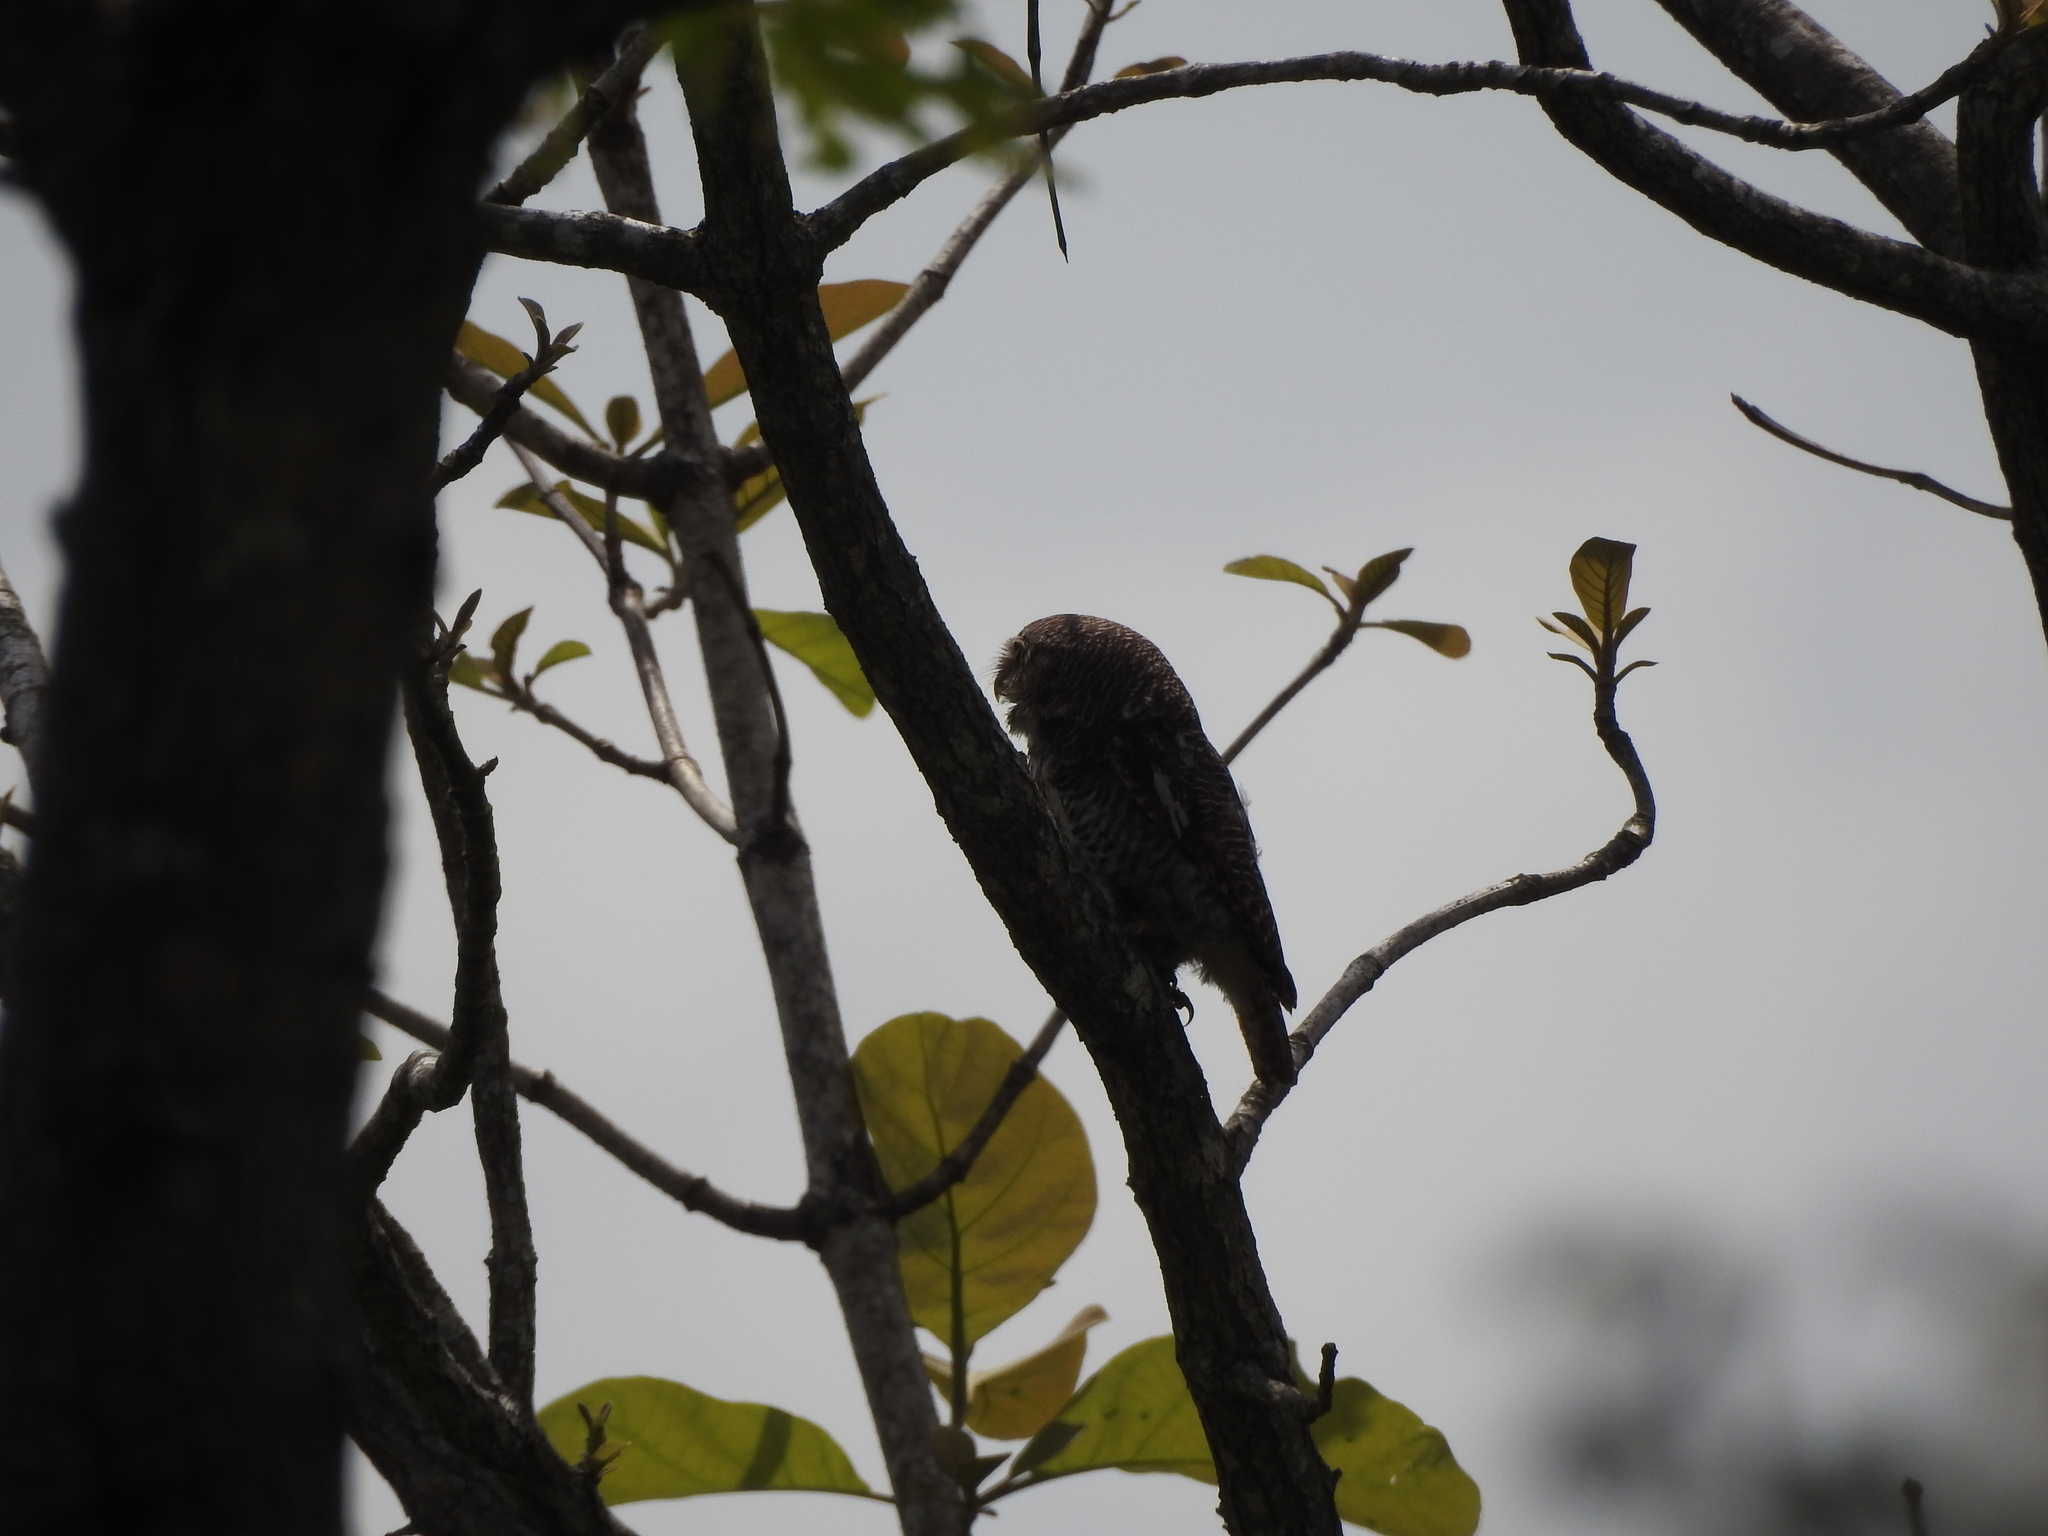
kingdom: Animalia
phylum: Chordata
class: Aves
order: Strigiformes
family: Strigidae
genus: Glaucidium
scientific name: Glaucidium radiatum
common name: Jungle owlet
